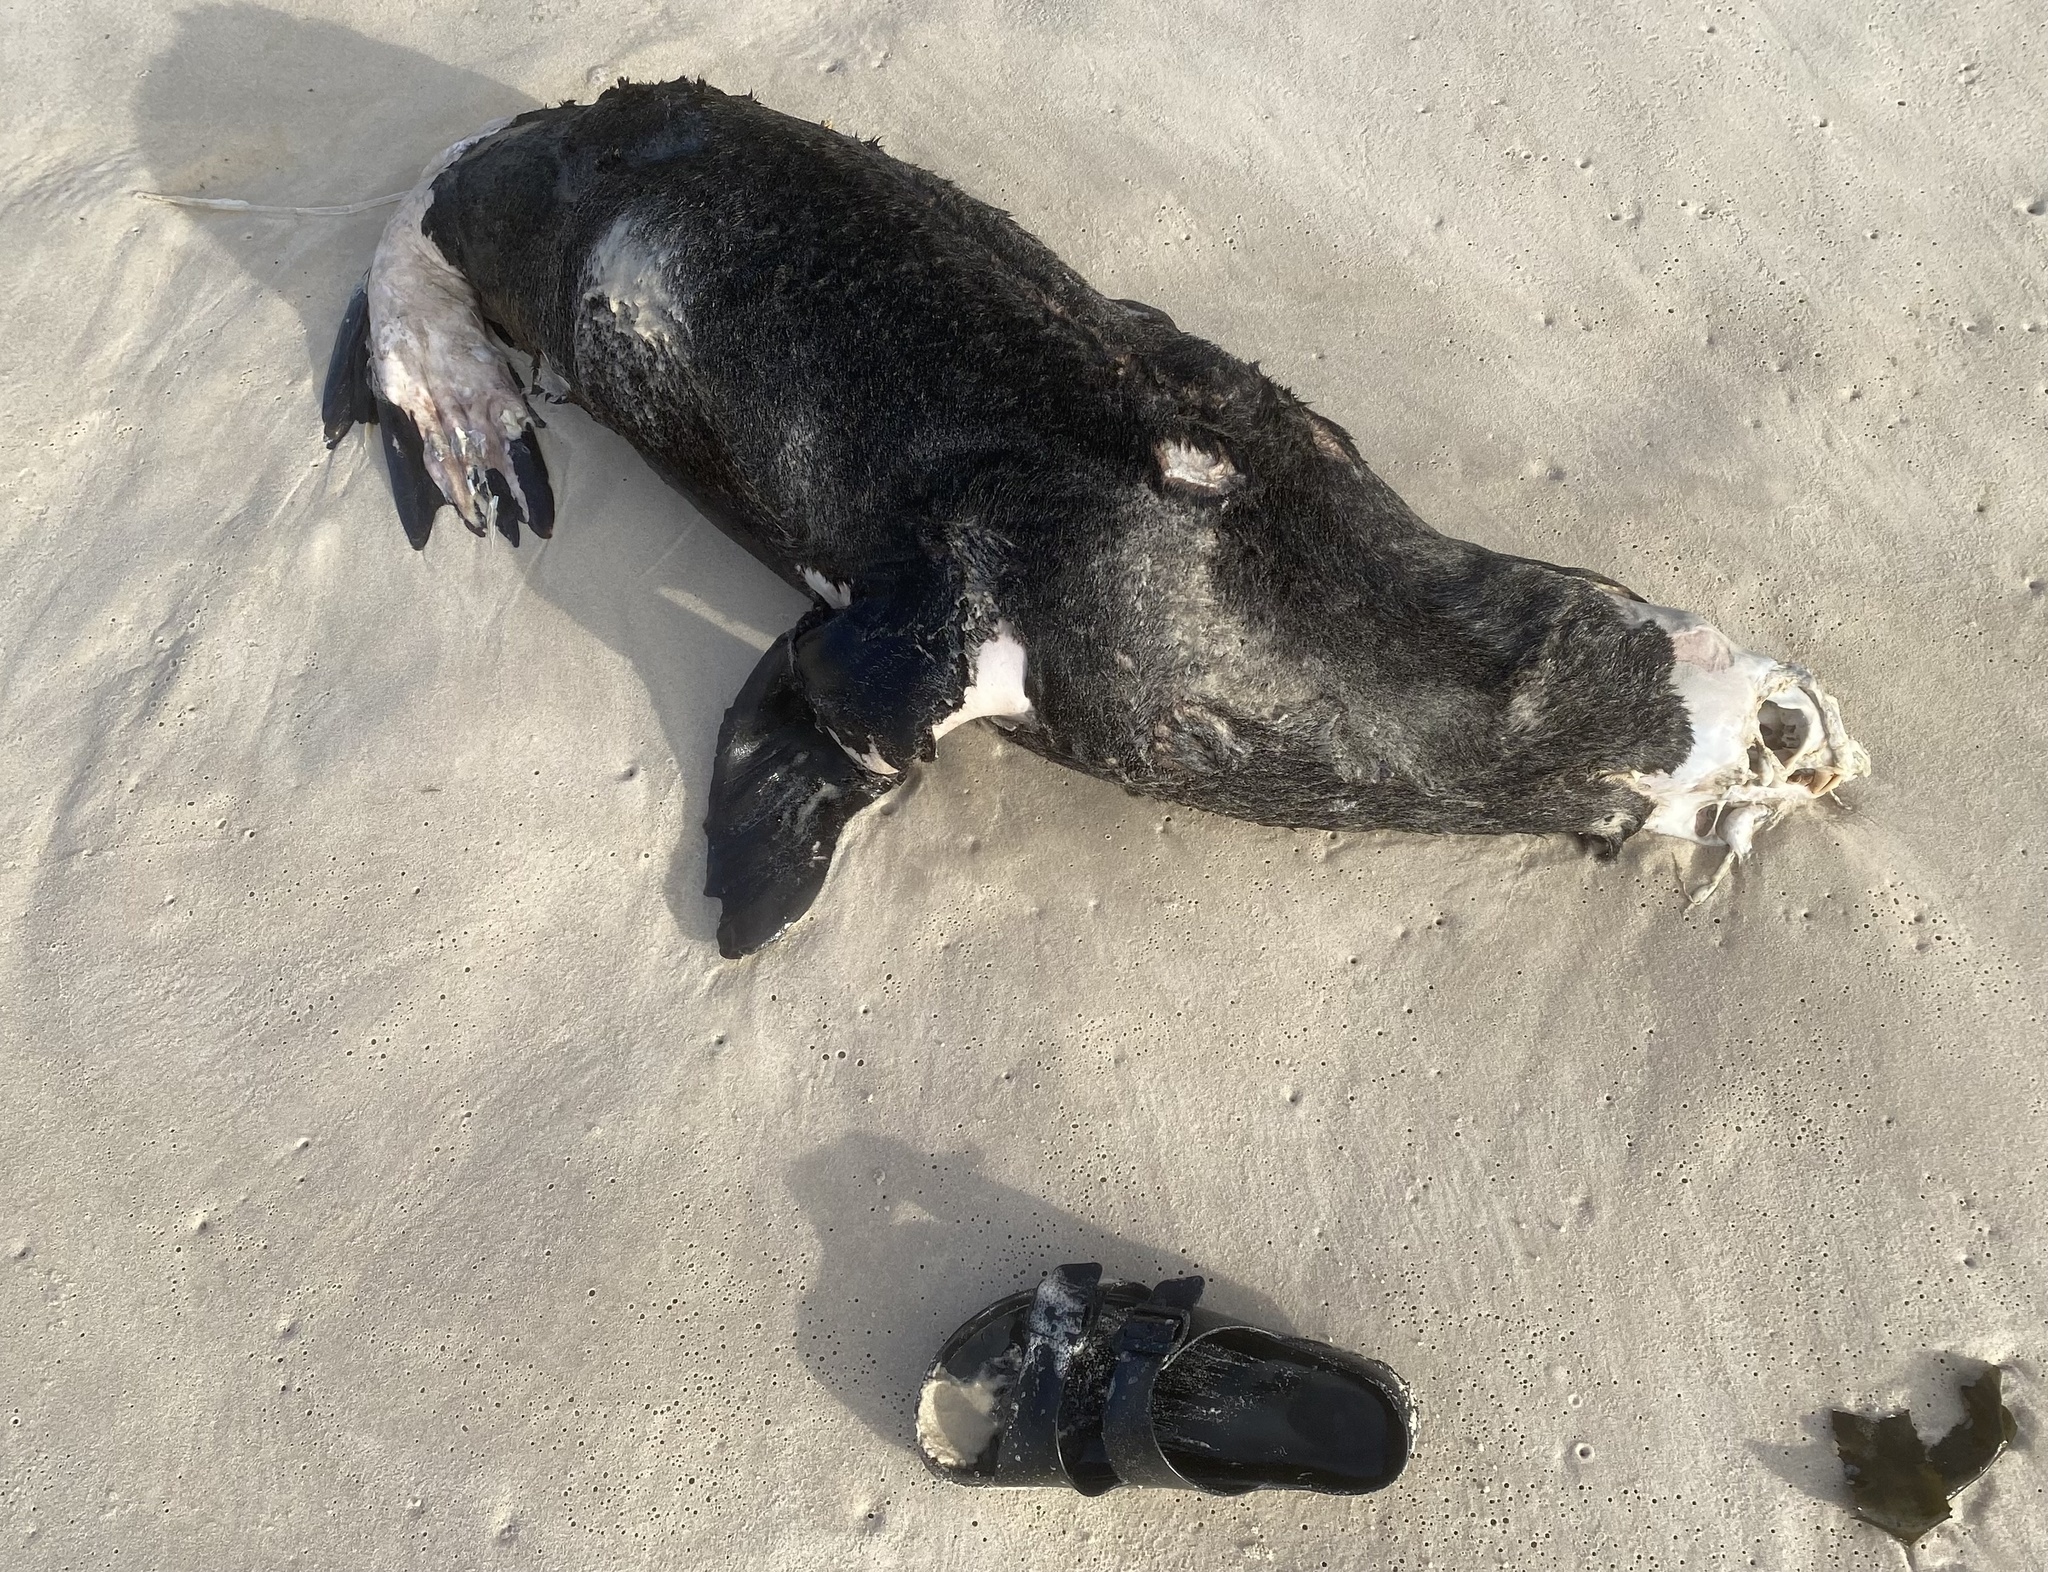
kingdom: Animalia
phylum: Chordata
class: Mammalia
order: Carnivora
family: Otariidae
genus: Arctocephalus
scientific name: Arctocephalus pusillus
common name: Brown fur seal
